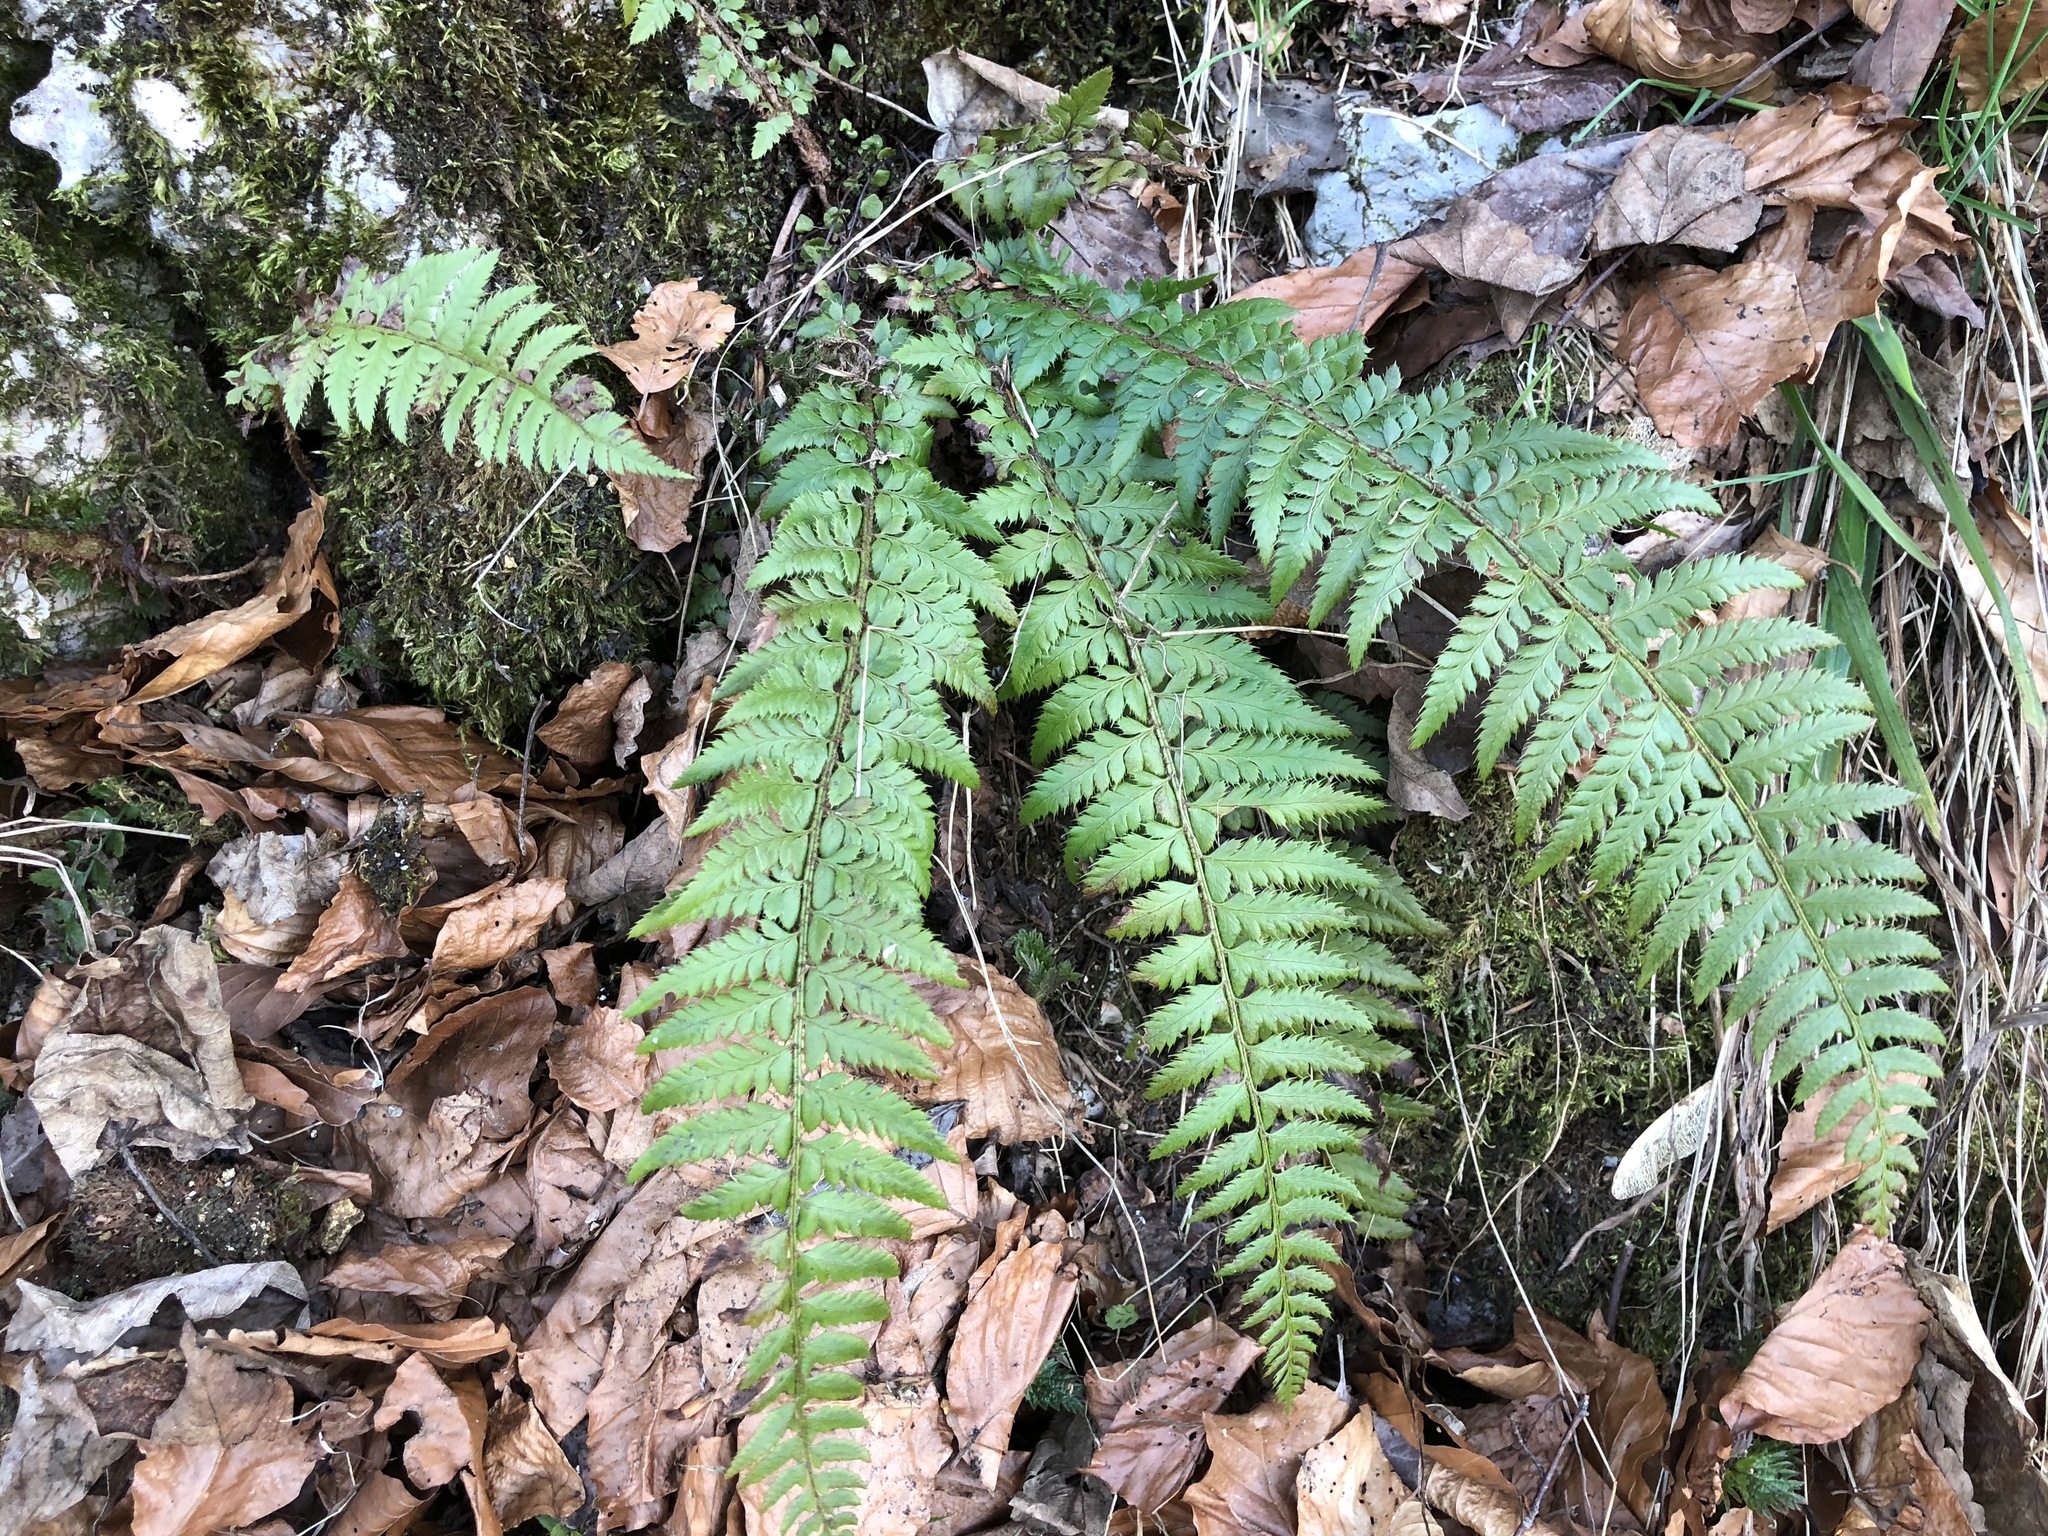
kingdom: Plantae
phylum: Tracheophyta
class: Polypodiopsida
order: Polypodiales
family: Dryopteridaceae
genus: Polystichum
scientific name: Polystichum aculeatum
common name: Hard shield-fern
